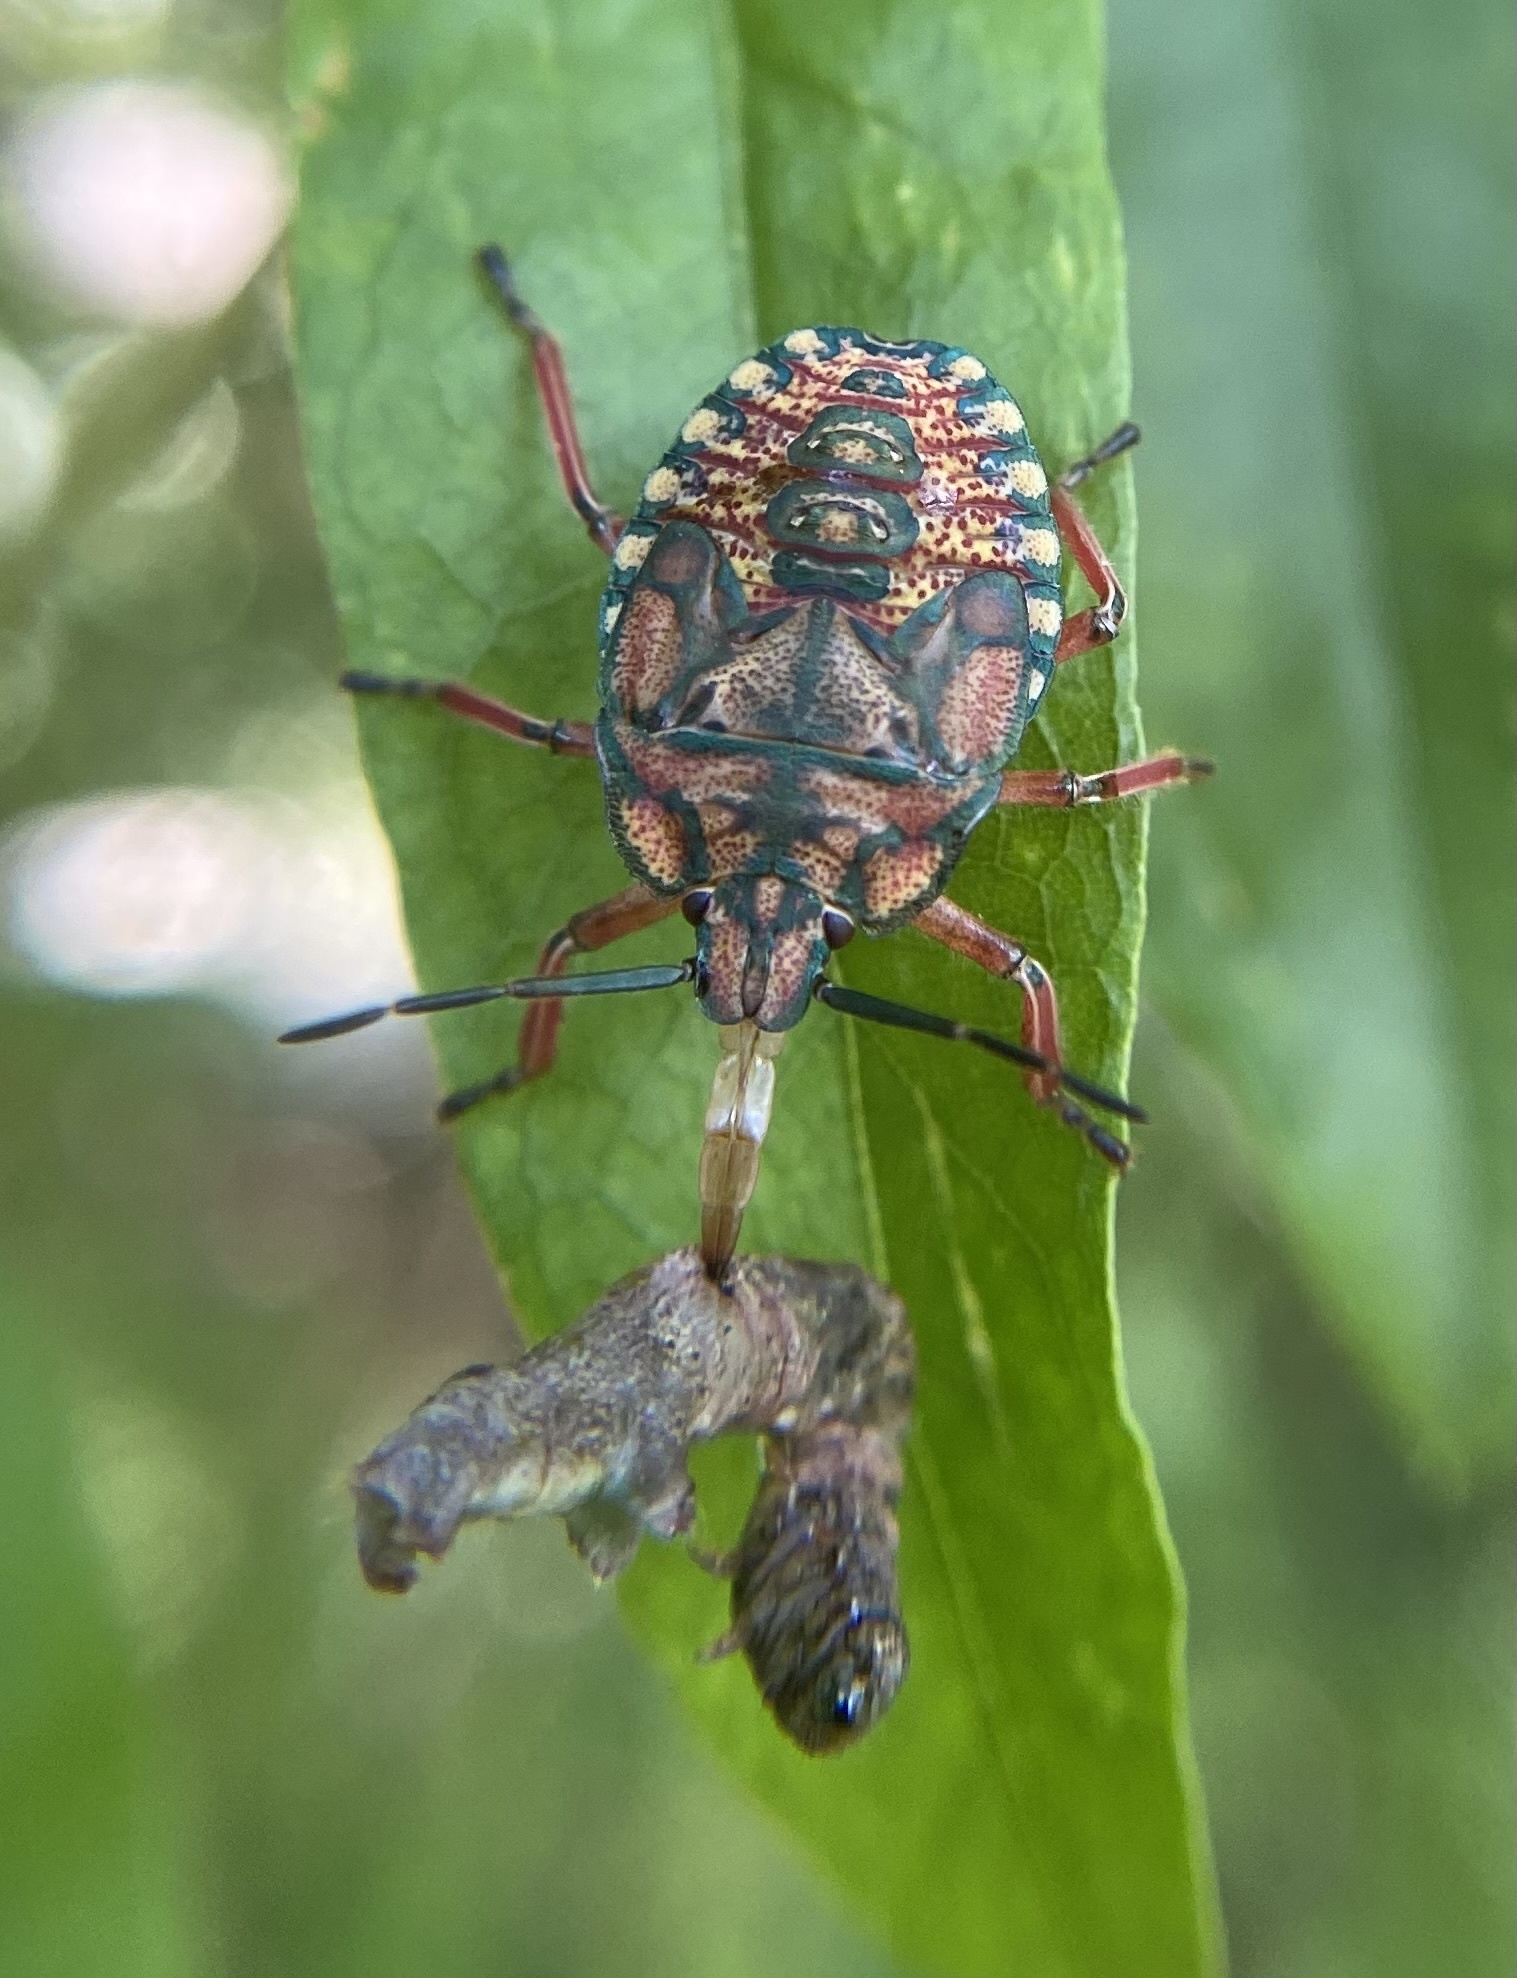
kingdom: Animalia
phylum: Arthropoda
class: Insecta
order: Hemiptera
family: Pentatomidae
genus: Apoecilus
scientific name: Apoecilus
